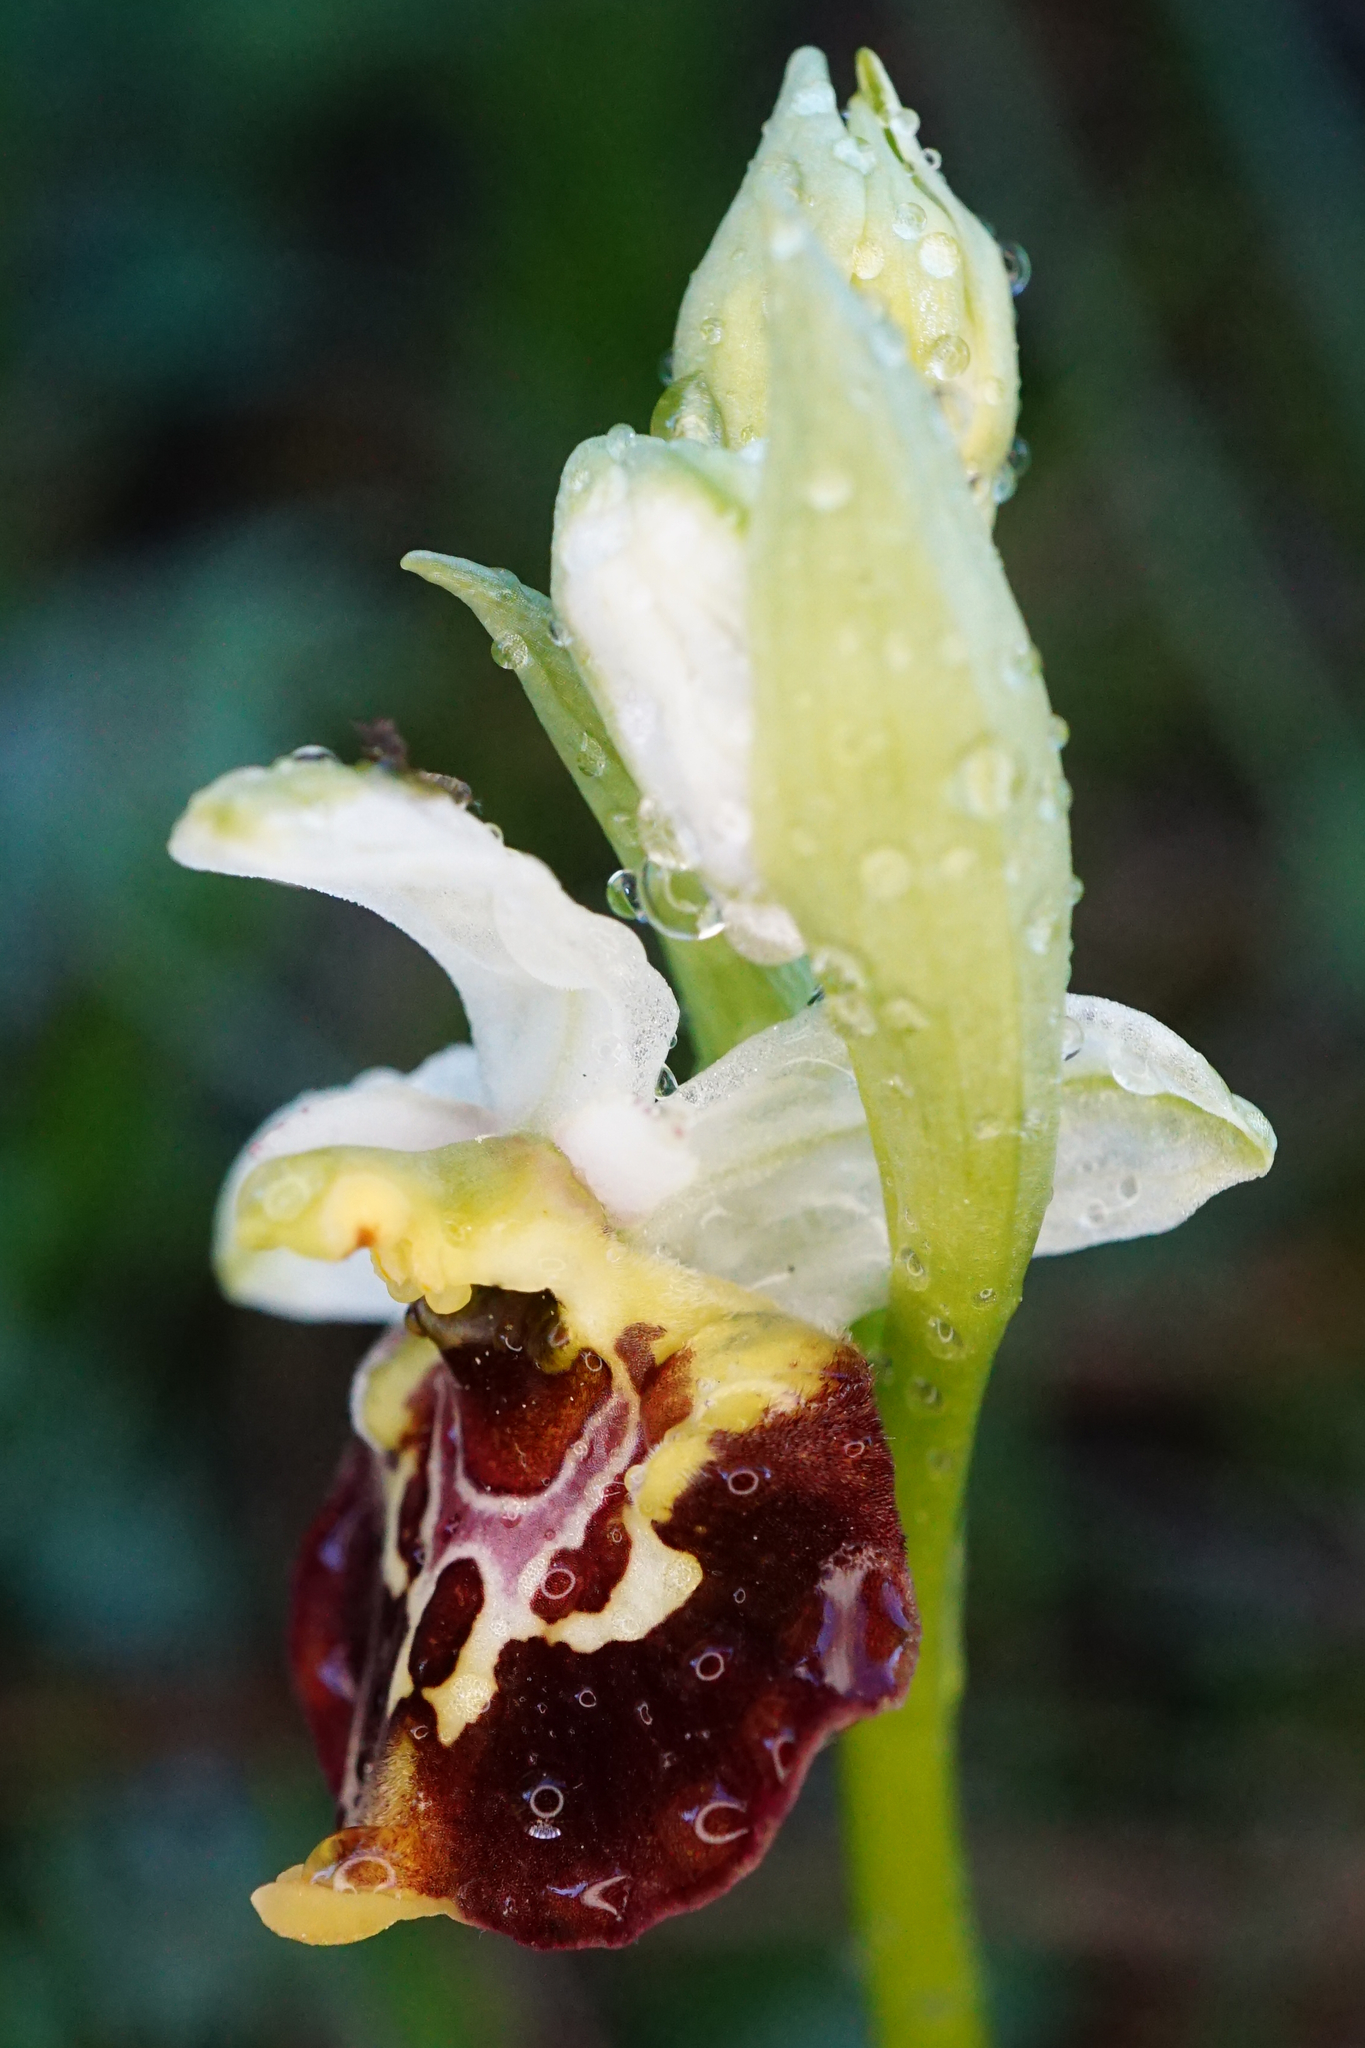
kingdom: Plantae
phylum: Tracheophyta
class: Liliopsida
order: Asparagales
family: Orchidaceae
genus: Ophrys
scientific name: Ophrys holosericea
